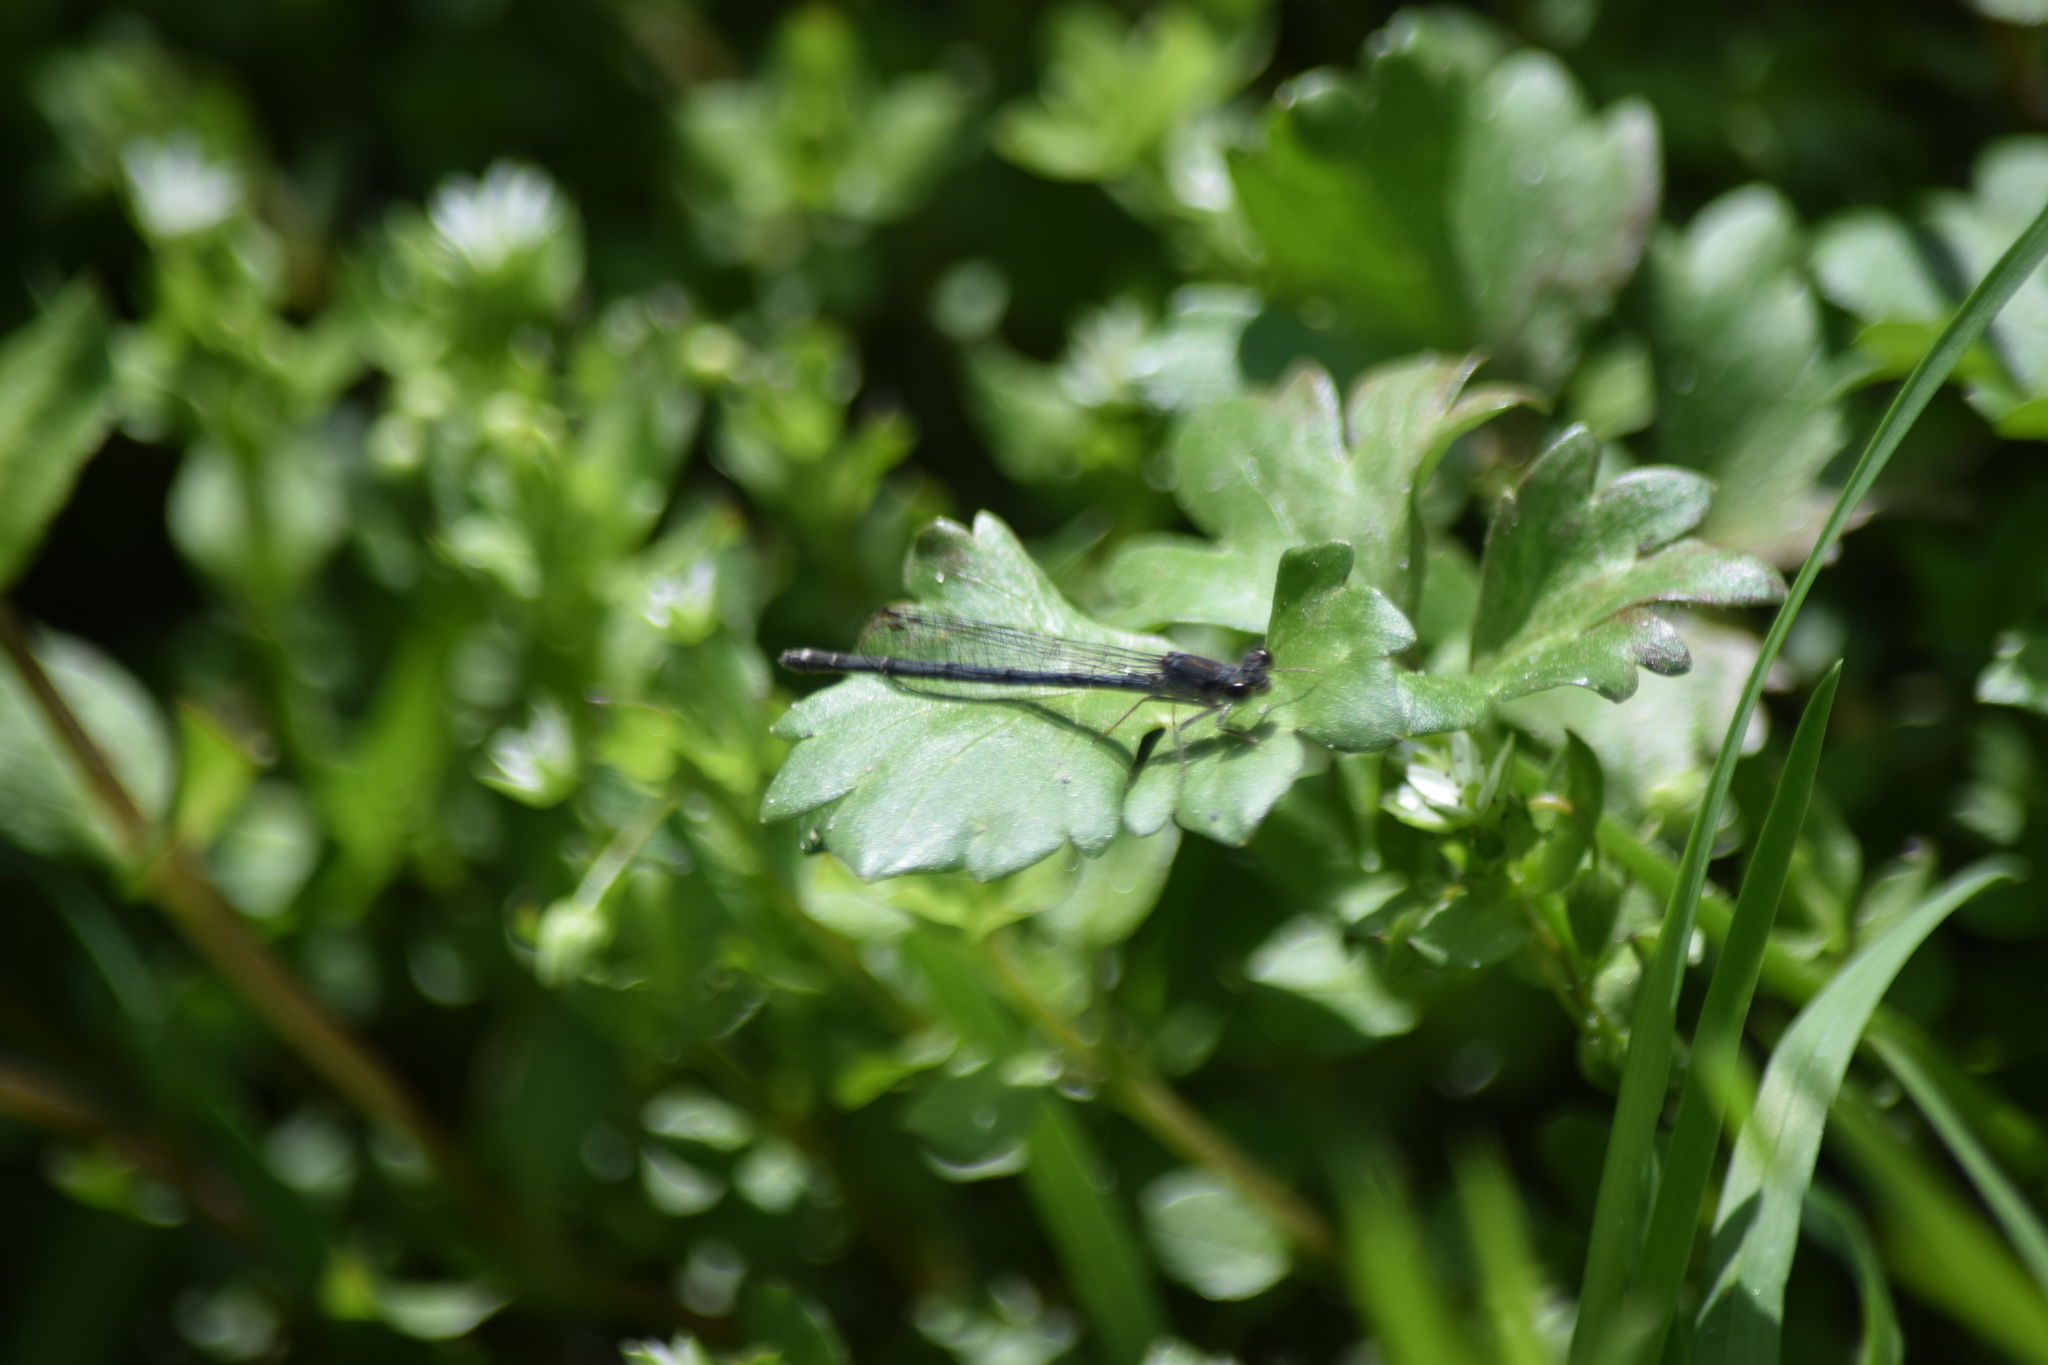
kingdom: Animalia
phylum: Arthropoda
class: Insecta
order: Odonata
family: Coenagrionidae
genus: Ischnura
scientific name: Ischnura posita
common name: Fragile forktail
